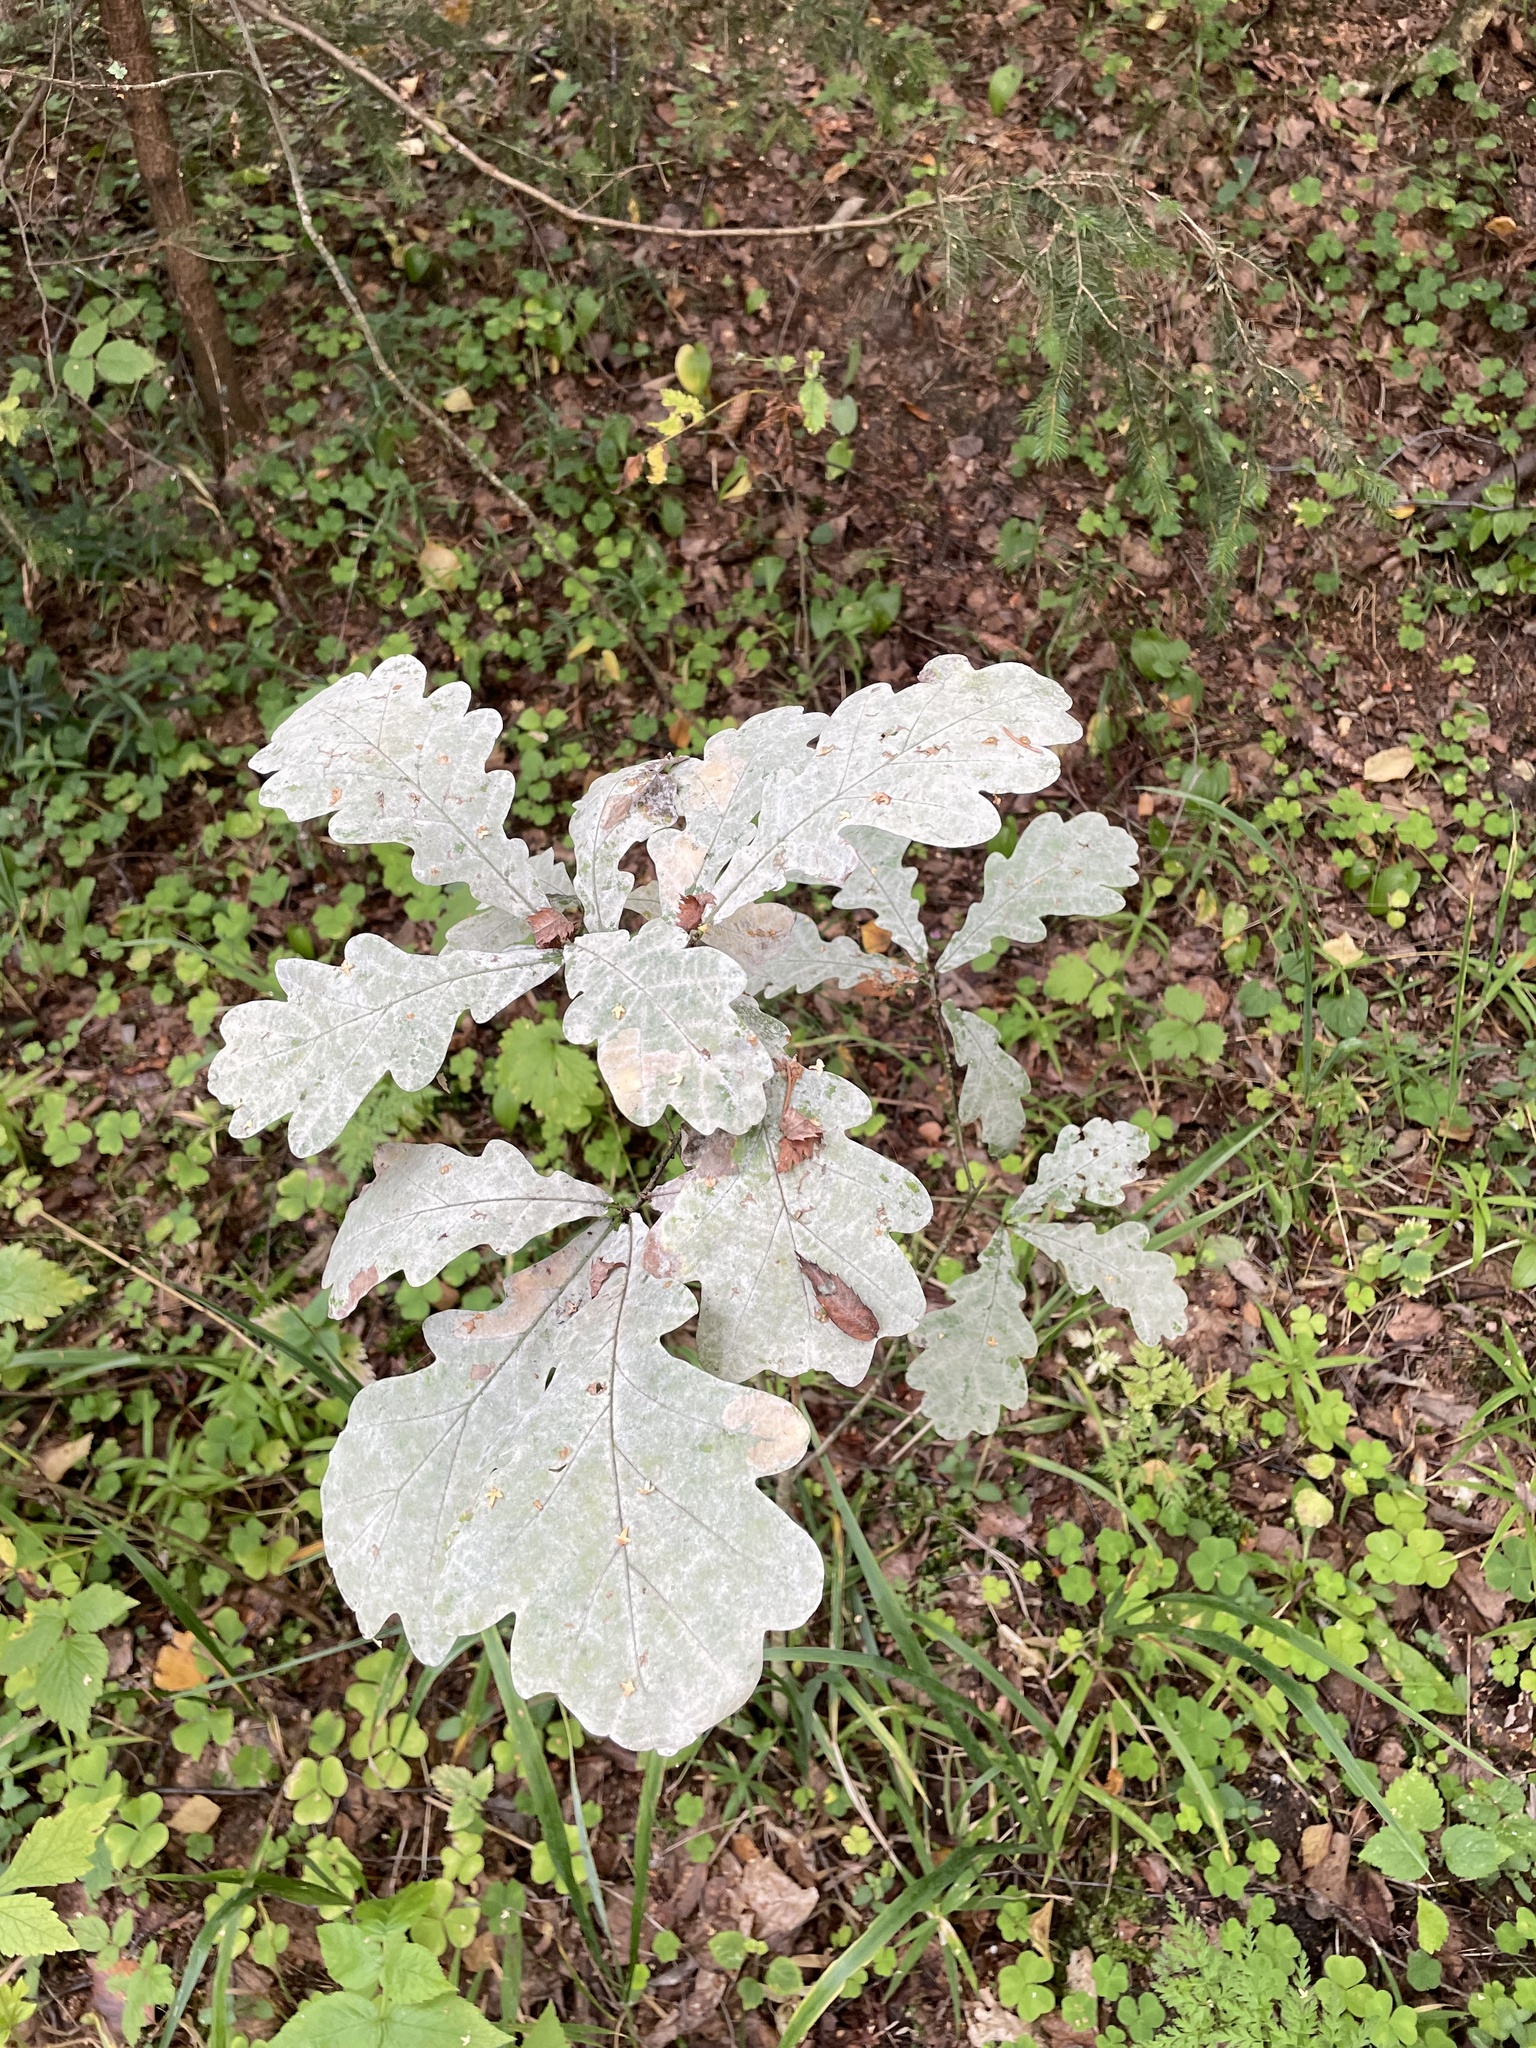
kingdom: Fungi
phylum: Ascomycota
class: Leotiomycetes
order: Helotiales
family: Erysiphaceae
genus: Erysiphe
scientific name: Erysiphe alphitoides
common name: Oak mildew
